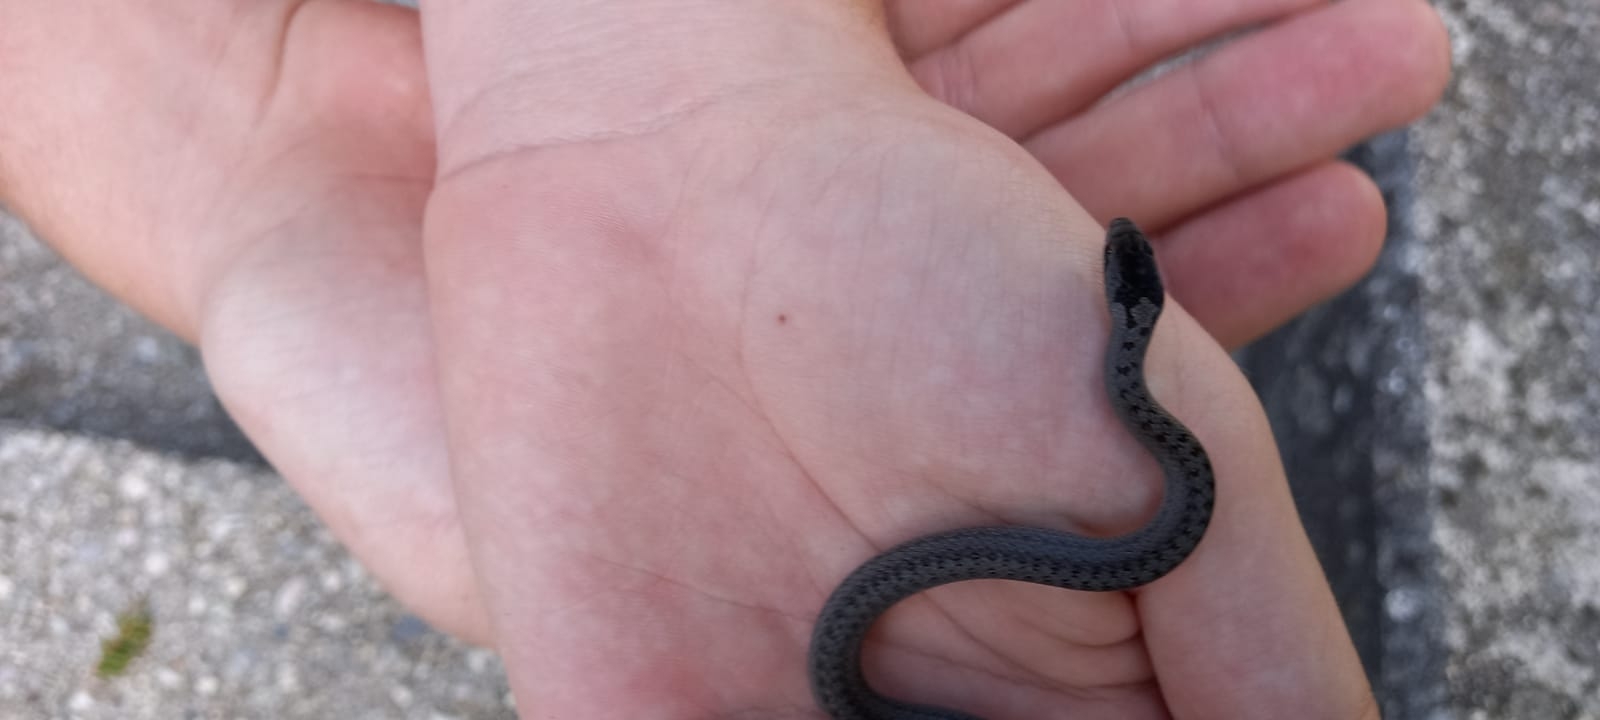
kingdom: Animalia
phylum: Chordata
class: Squamata
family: Colubridae
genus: Coronella
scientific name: Coronella austriaca
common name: Smooth snake
